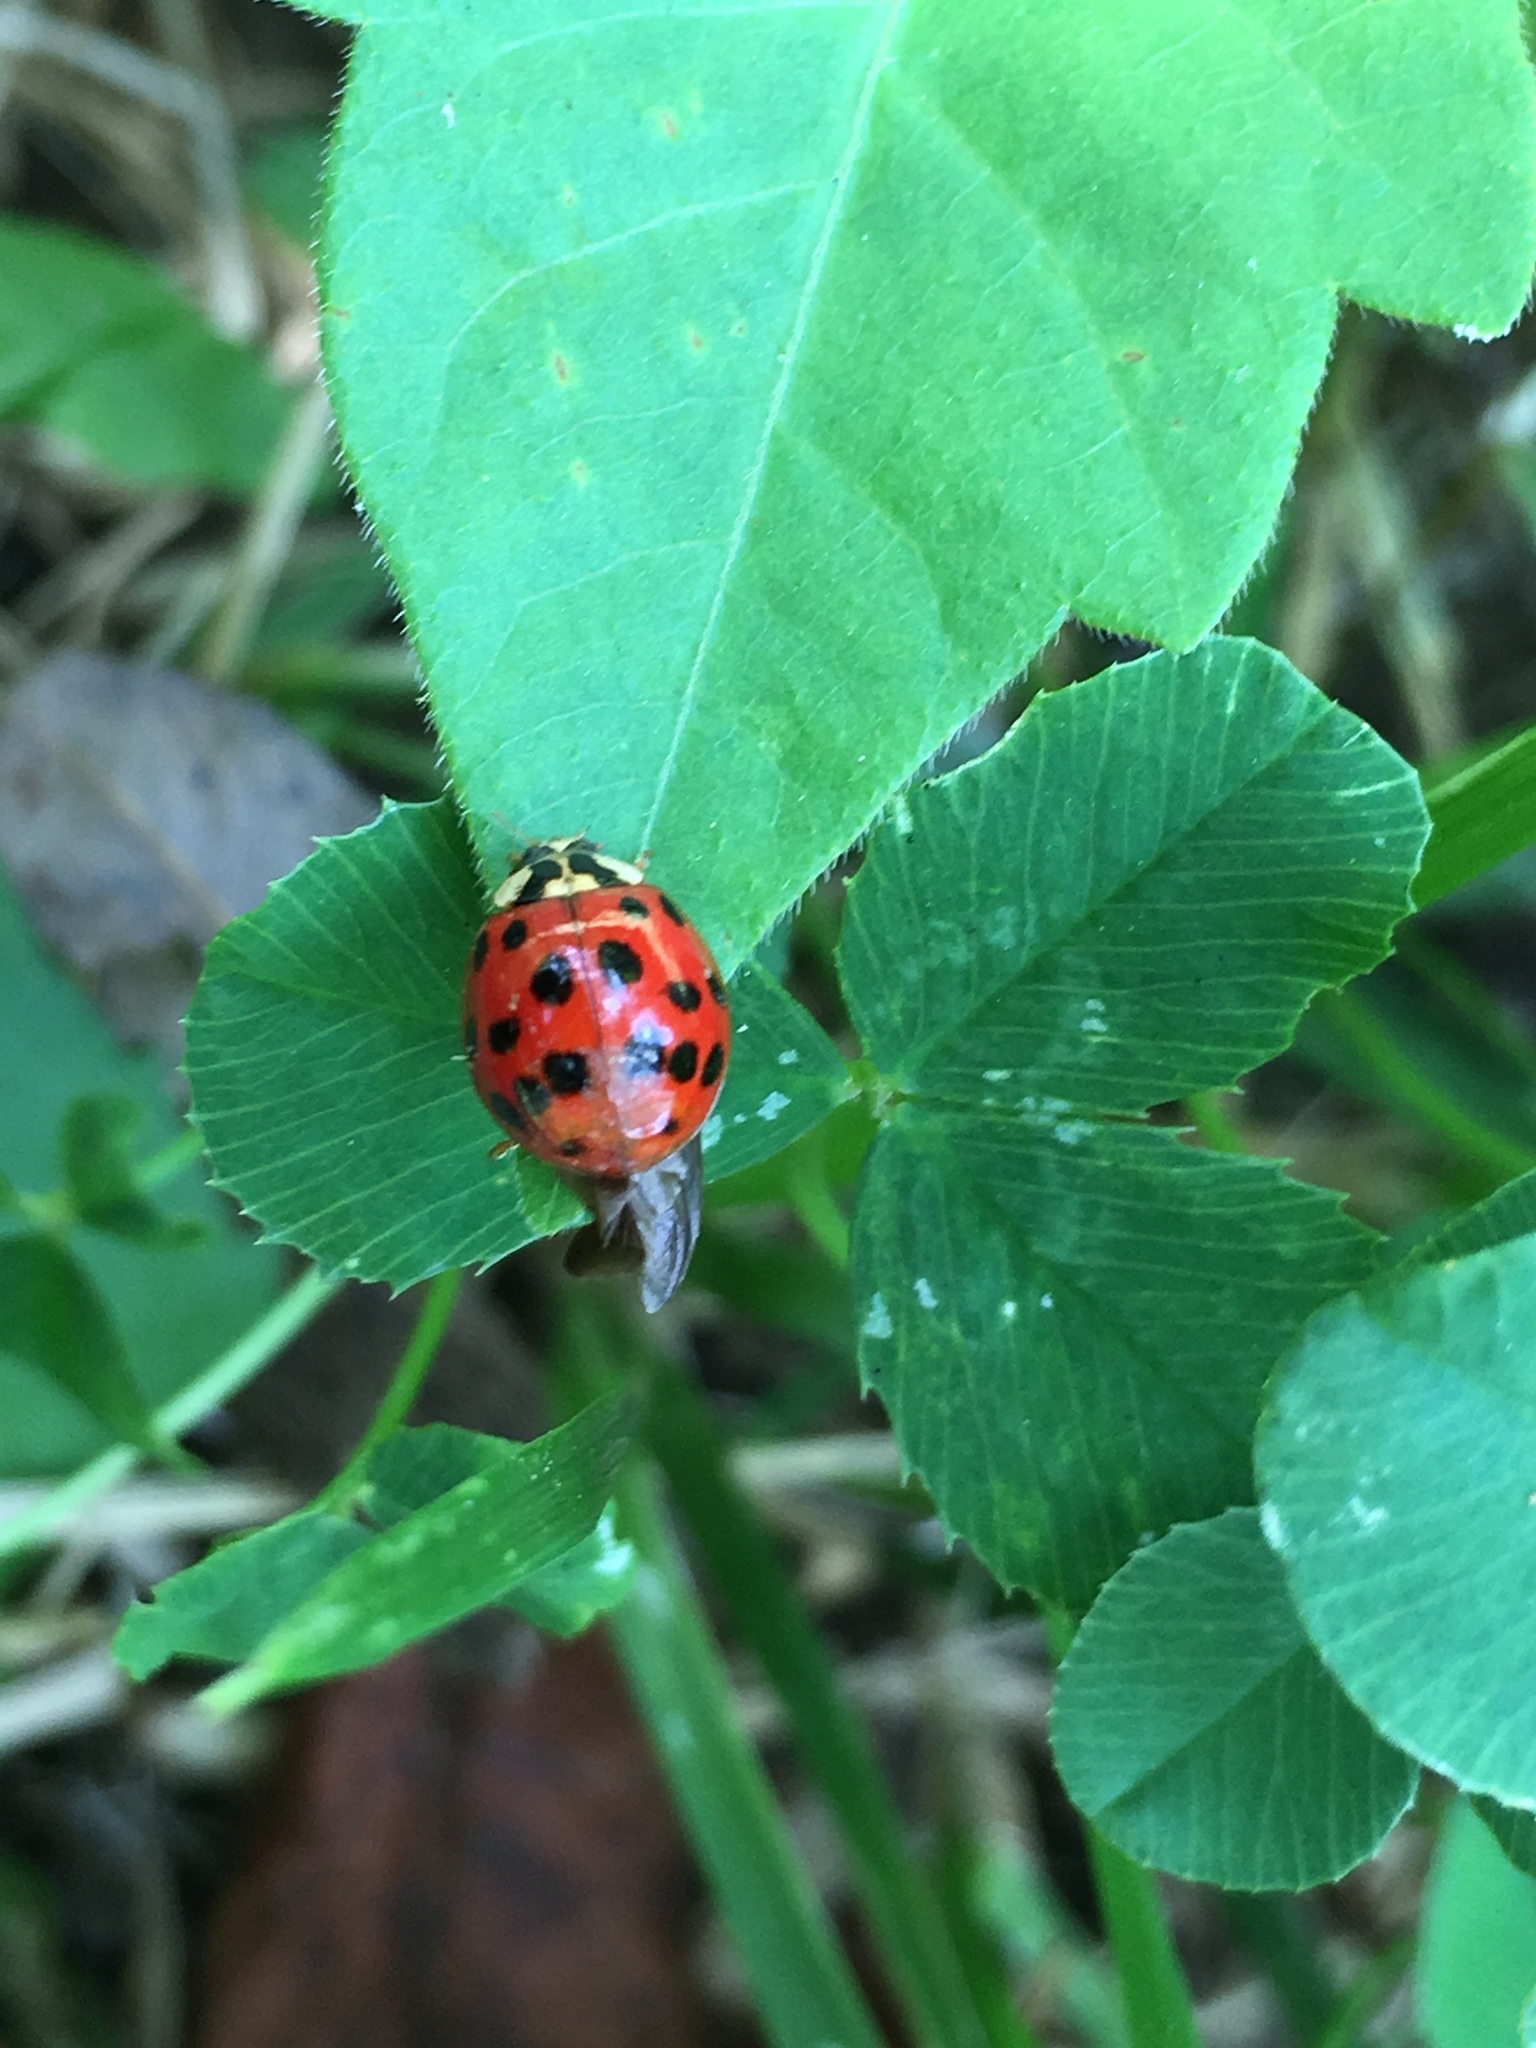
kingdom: Animalia
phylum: Arthropoda
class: Insecta
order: Coleoptera
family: Coccinellidae
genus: Harmonia
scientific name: Harmonia axyridis
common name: Harlequin ladybird
